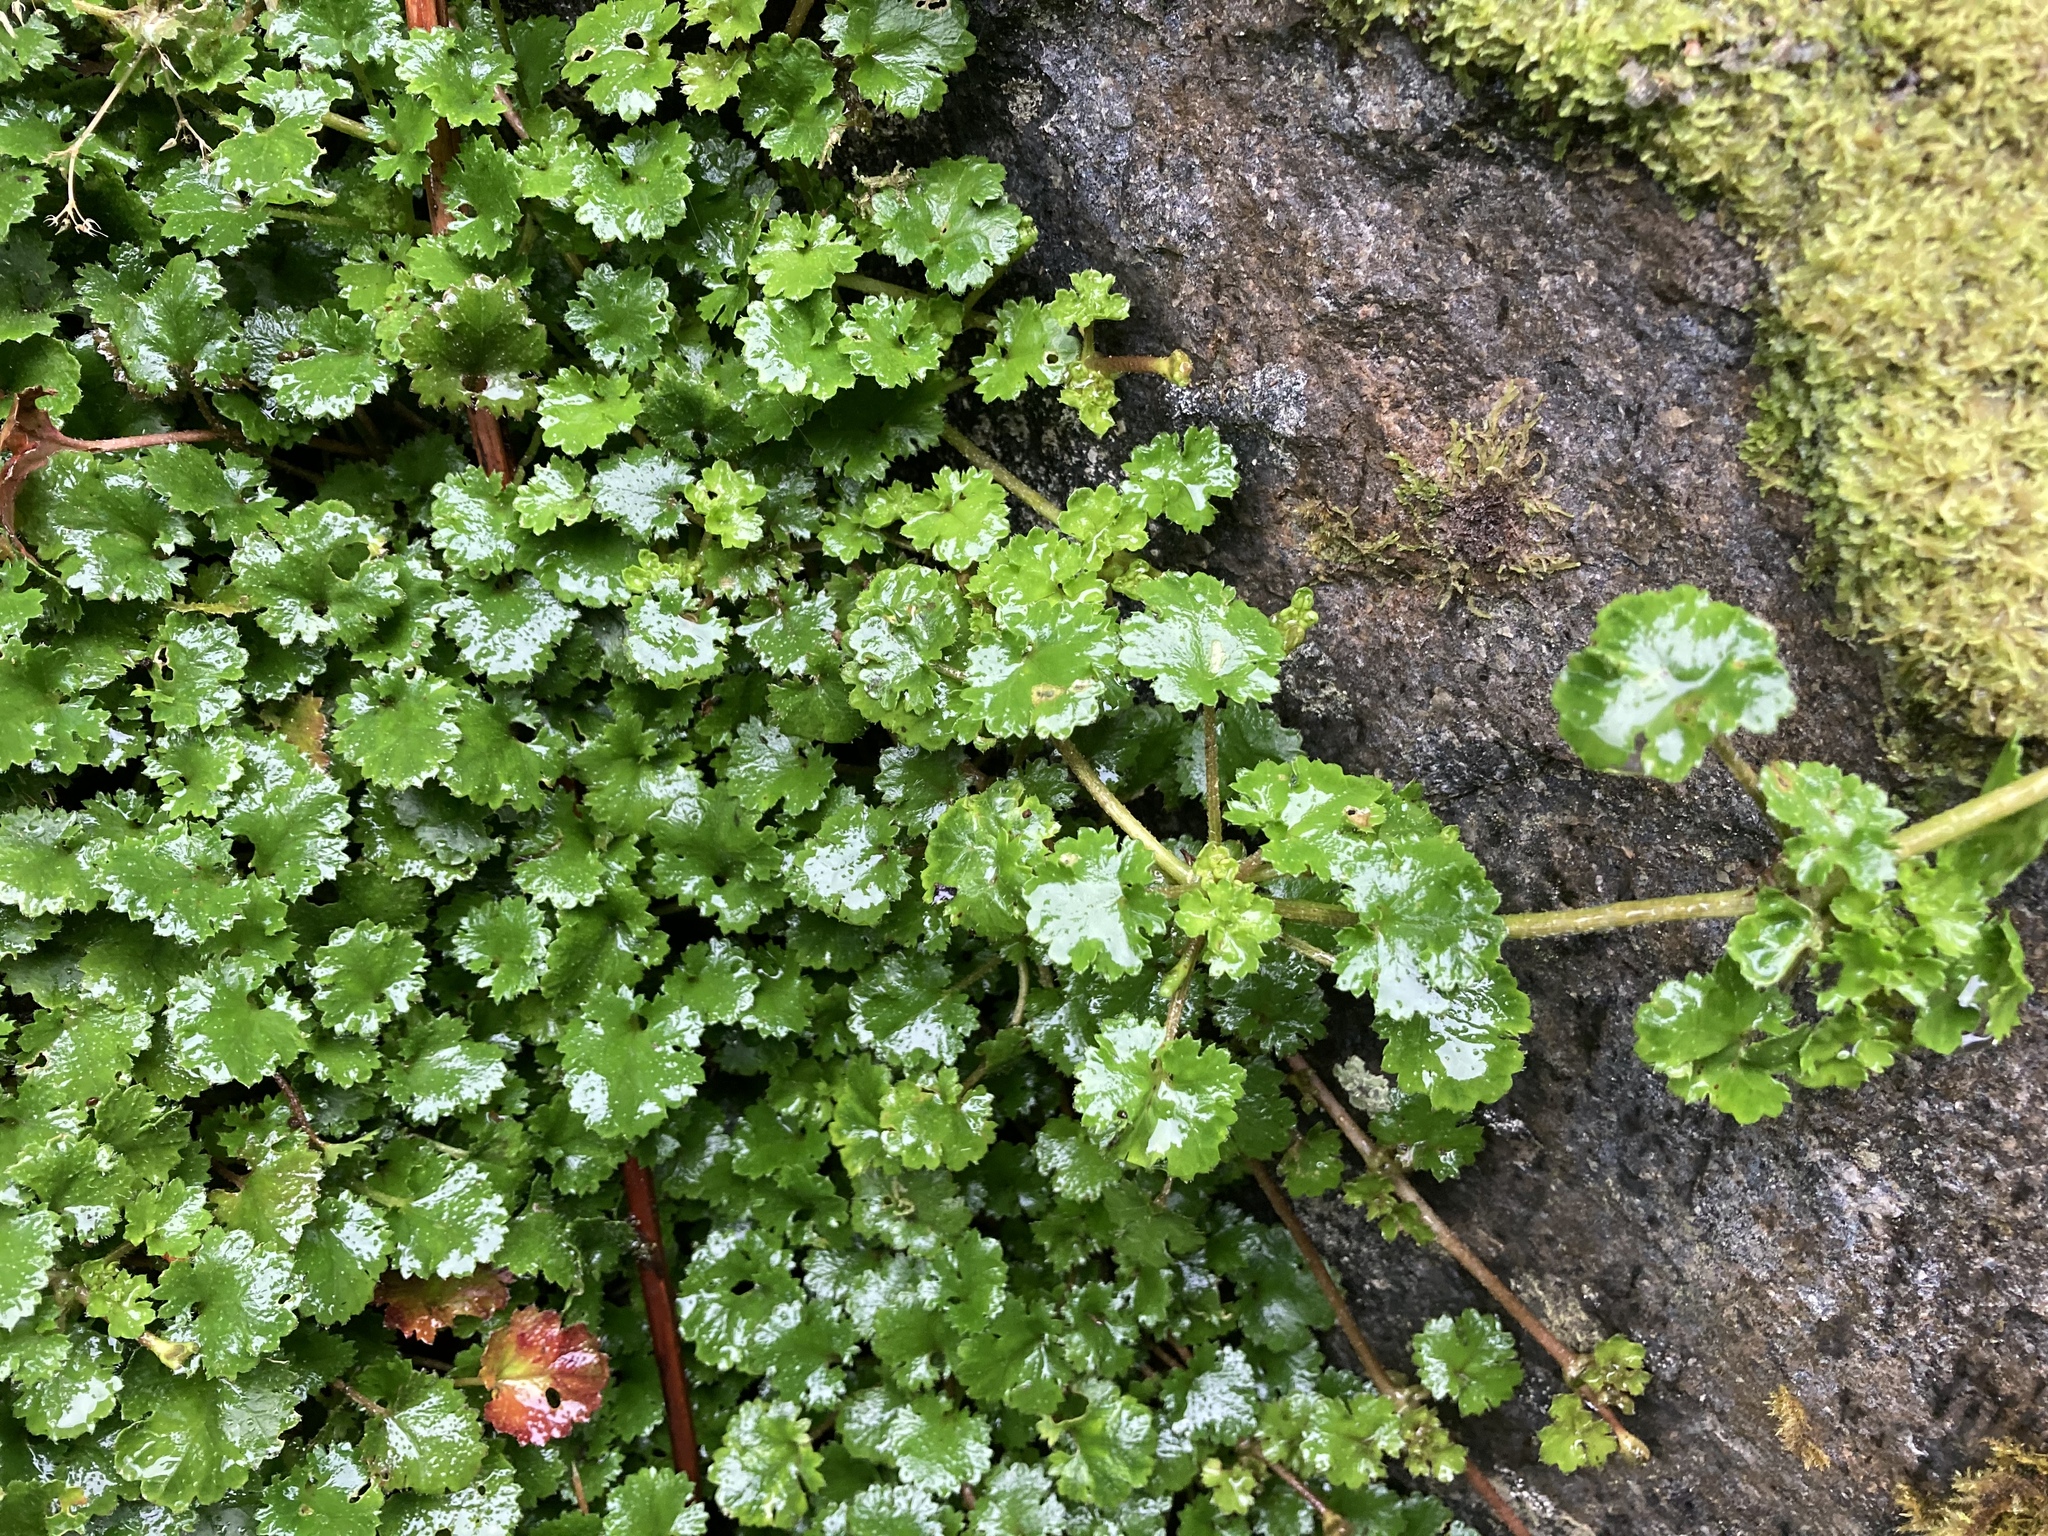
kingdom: Plantae
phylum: Tracheophyta
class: Magnoliopsida
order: Gunnerales
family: Gunneraceae
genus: Gunnera
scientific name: Gunnera monoica
